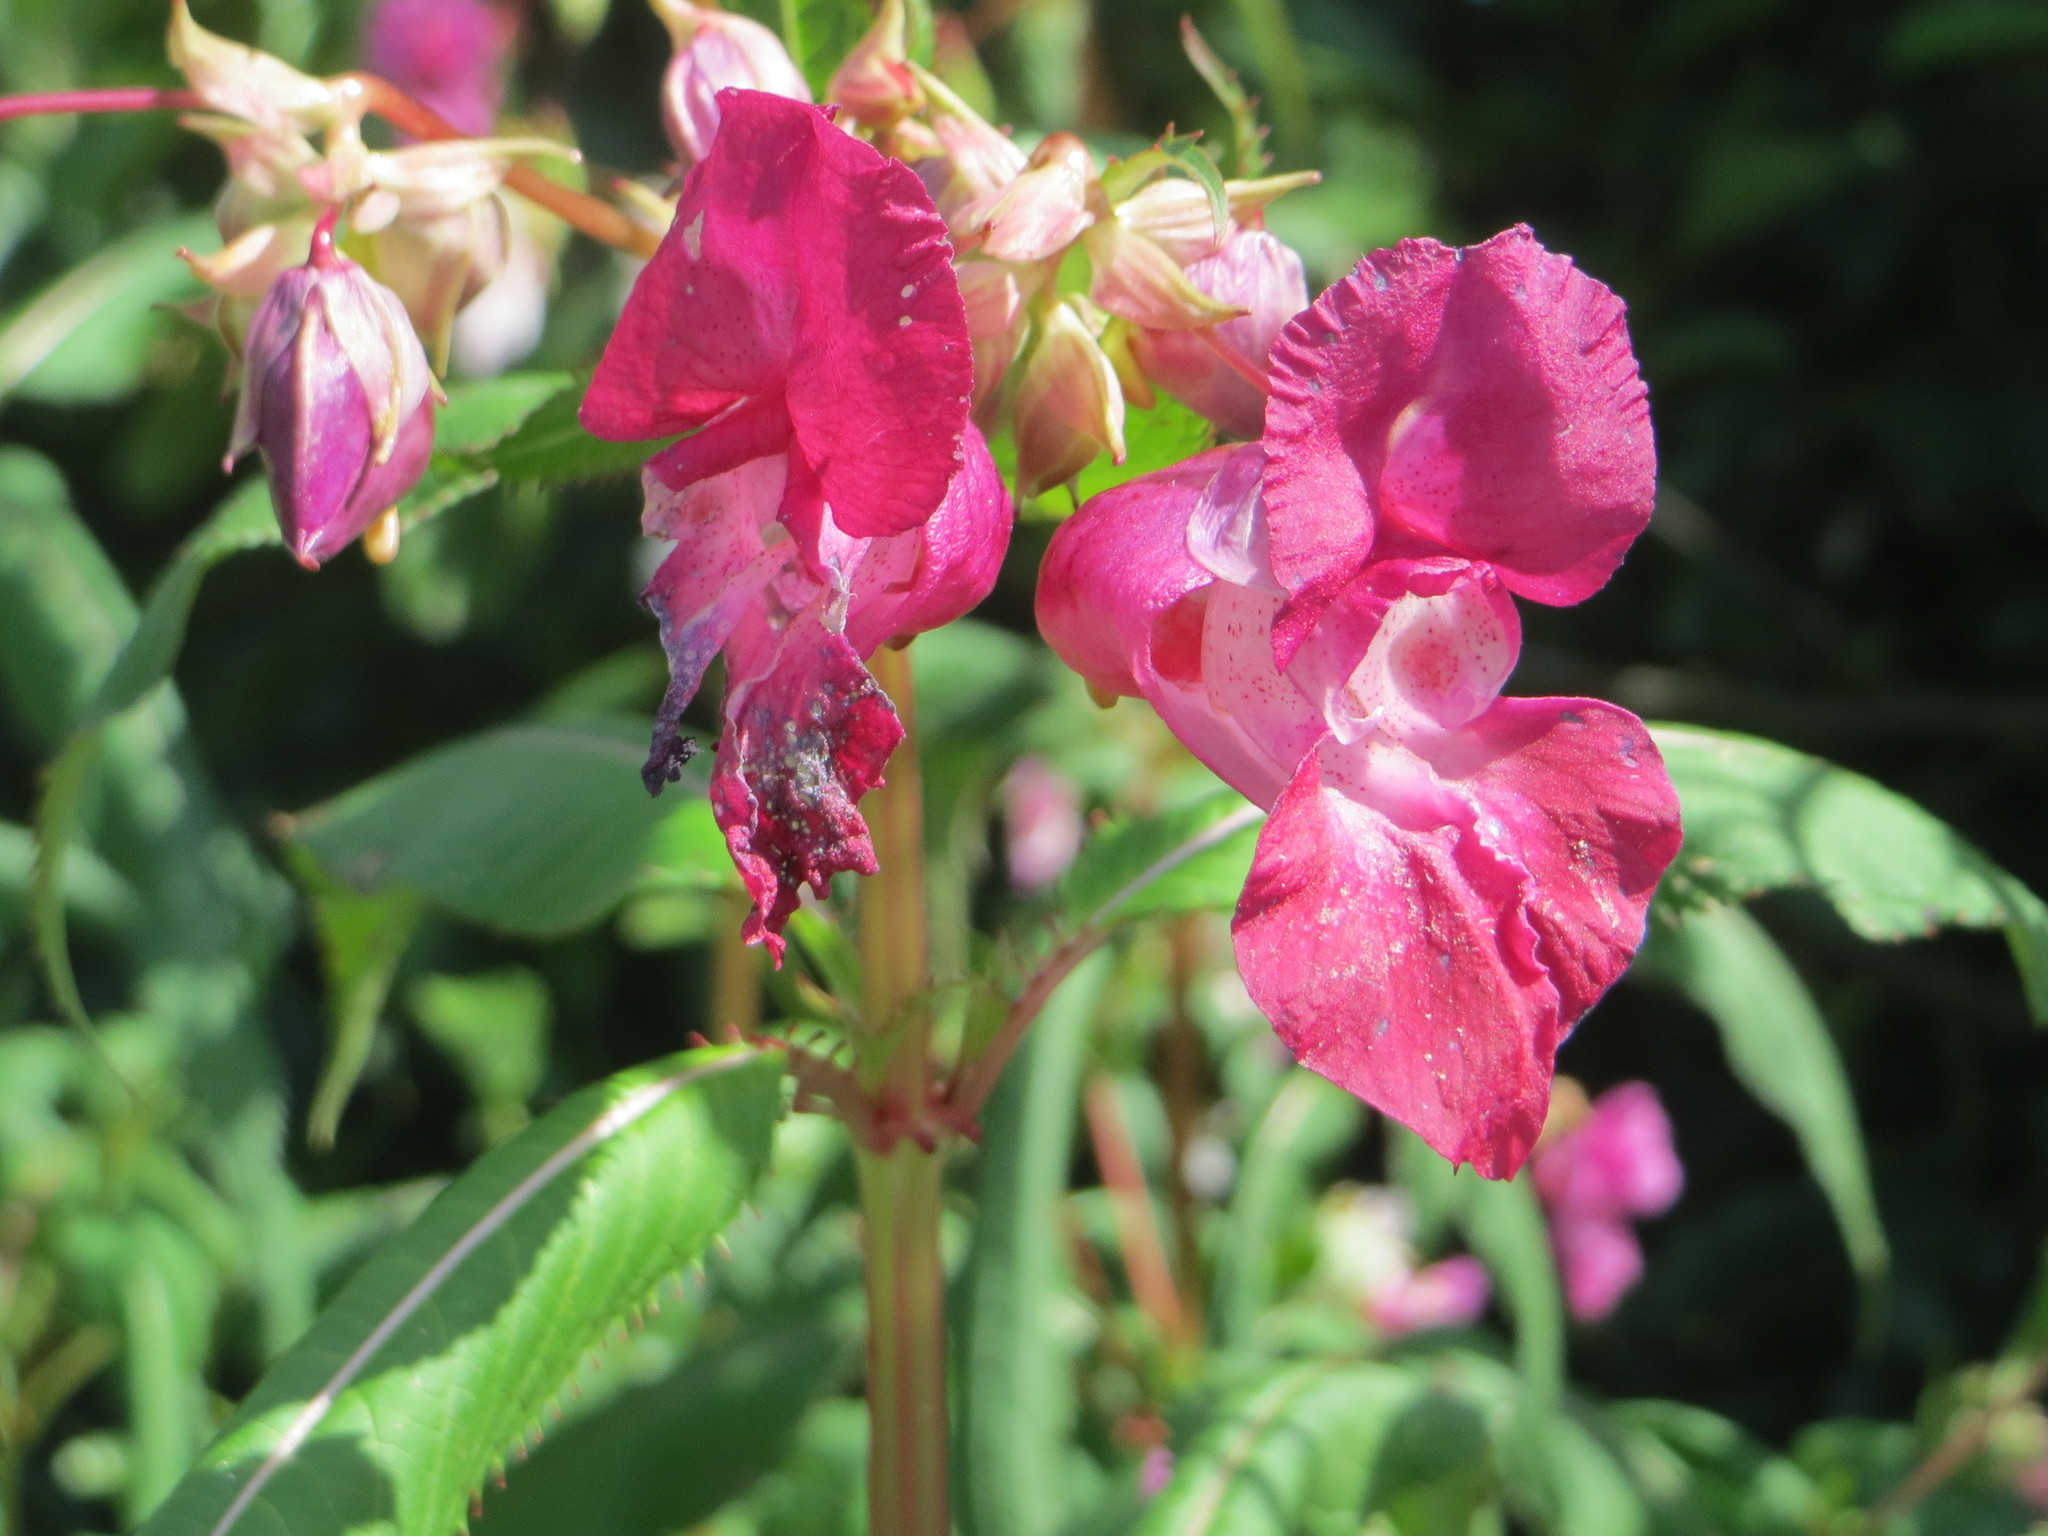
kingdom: Plantae
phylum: Tracheophyta
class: Magnoliopsida
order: Ericales
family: Balsaminaceae
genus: Impatiens
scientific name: Impatiens glandulifera
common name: Himalayan balsam
